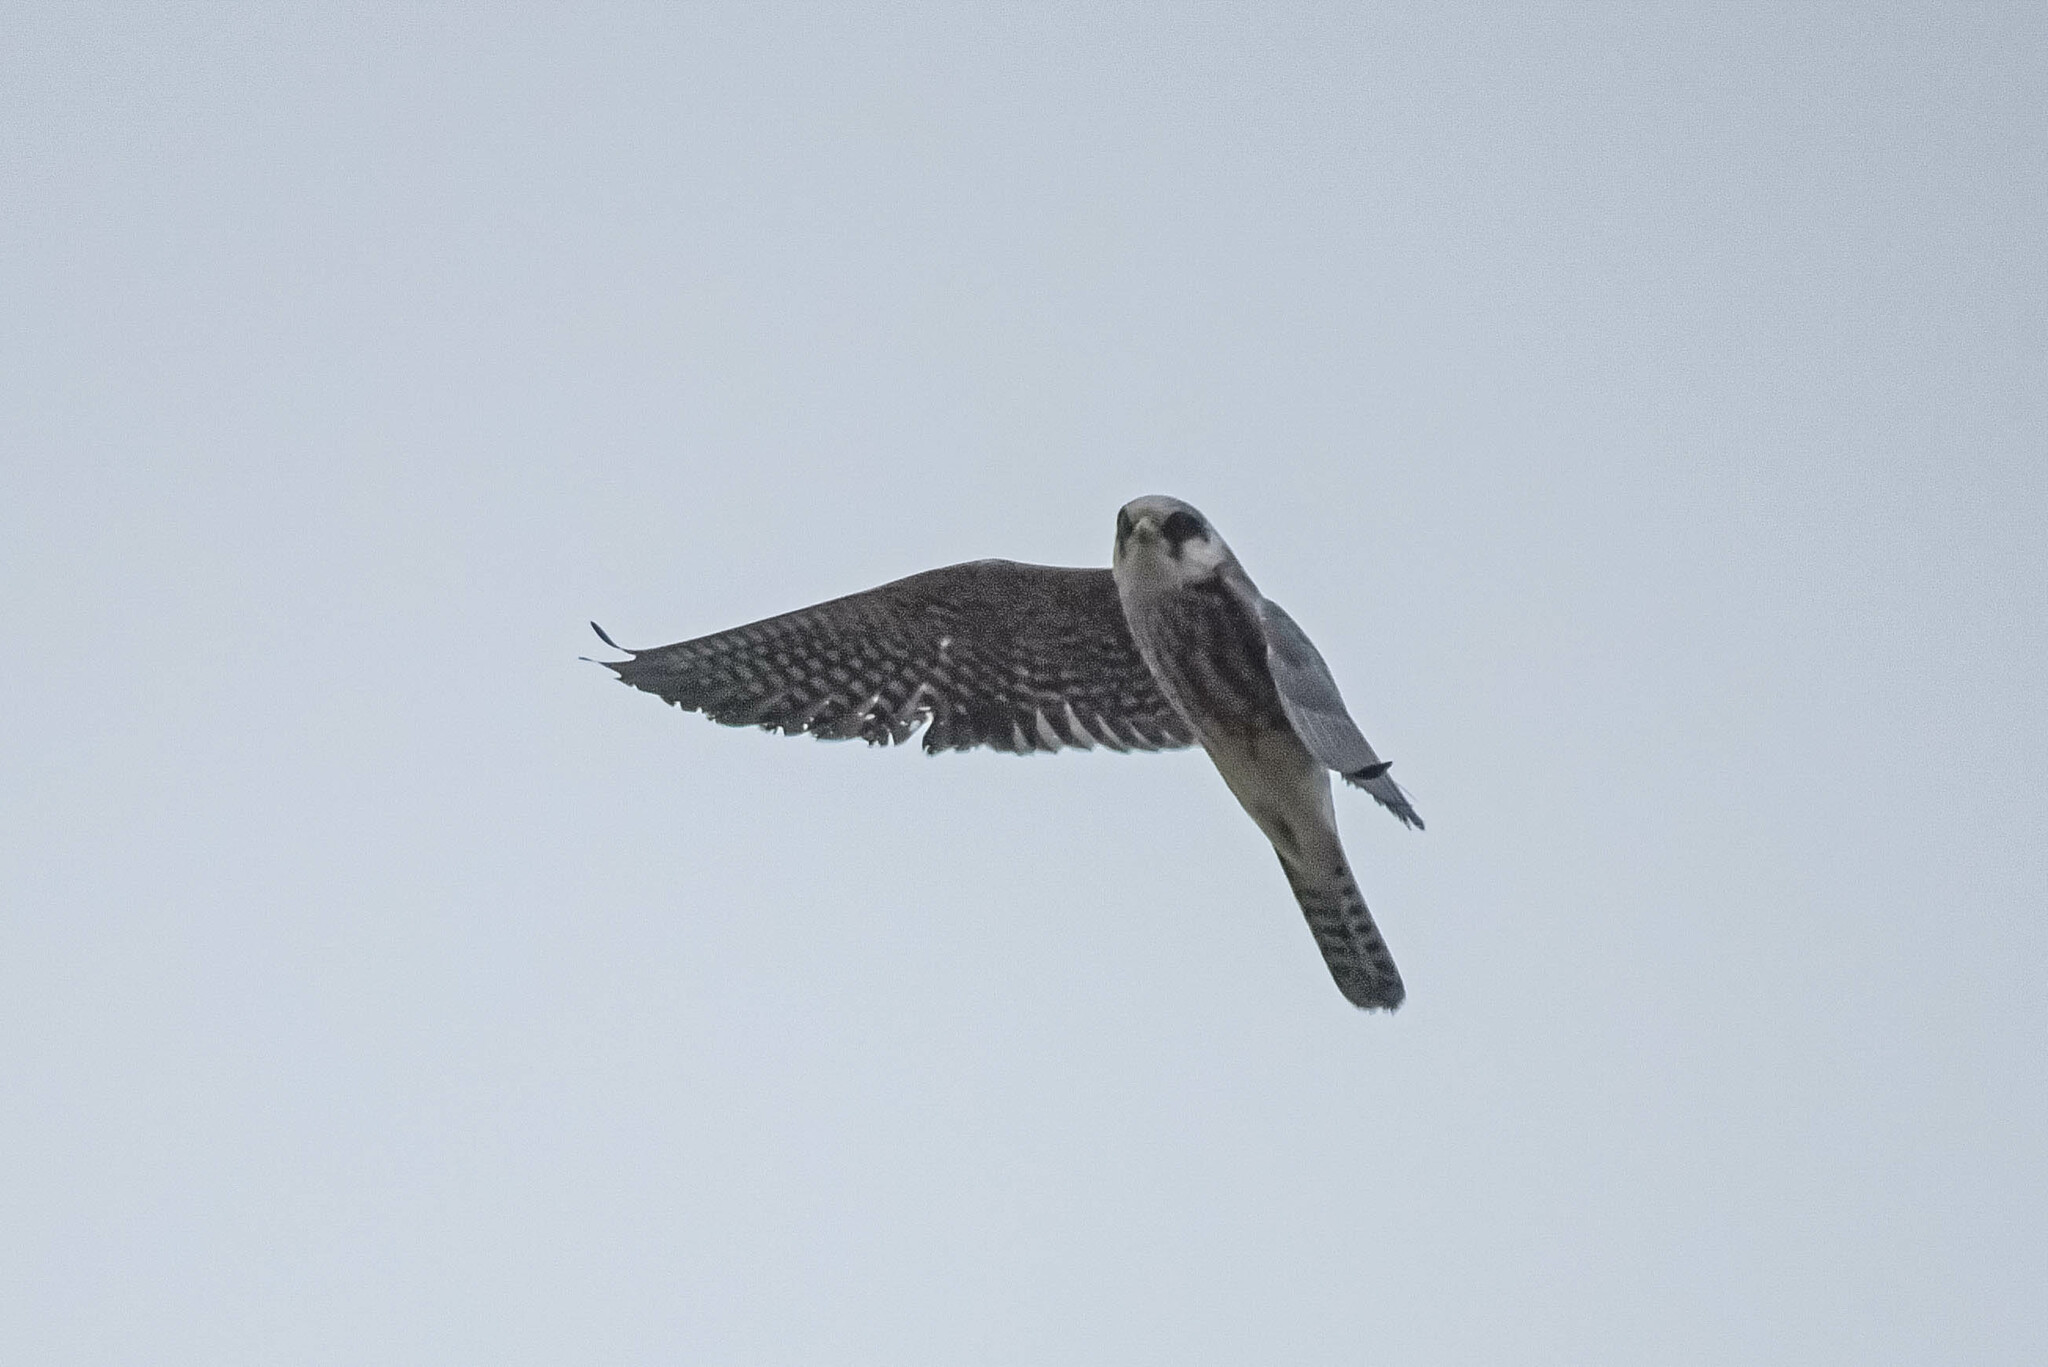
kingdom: Animalia
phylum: Chordata
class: Aves
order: Falconiformes
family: Falconidae
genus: Falco
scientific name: Falco vespertinus
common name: Red-footed falcon
